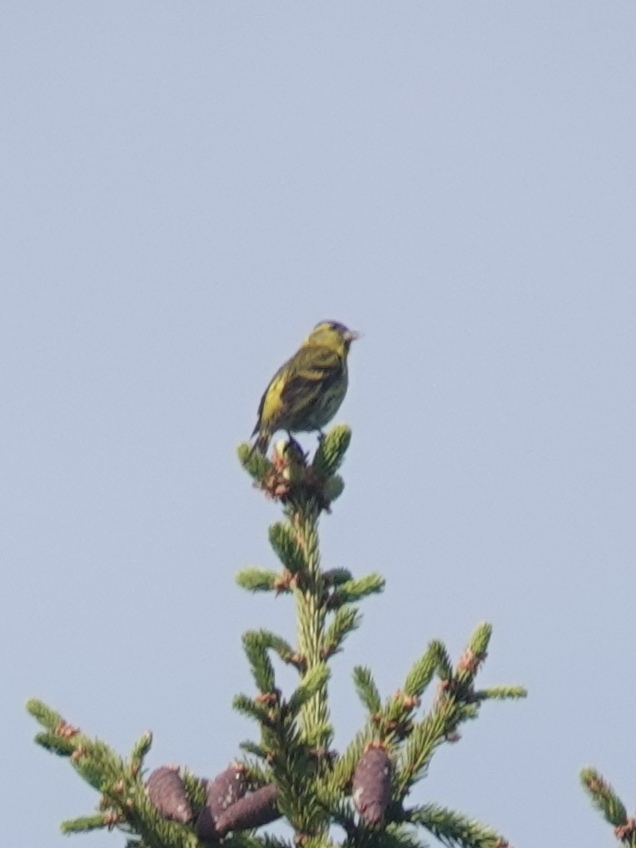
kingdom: Animalia
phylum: Chordata
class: Aves
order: Passeriformes
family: Fringillidae
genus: Spinus
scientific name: Spinus spinus
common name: Eurasian siskin
